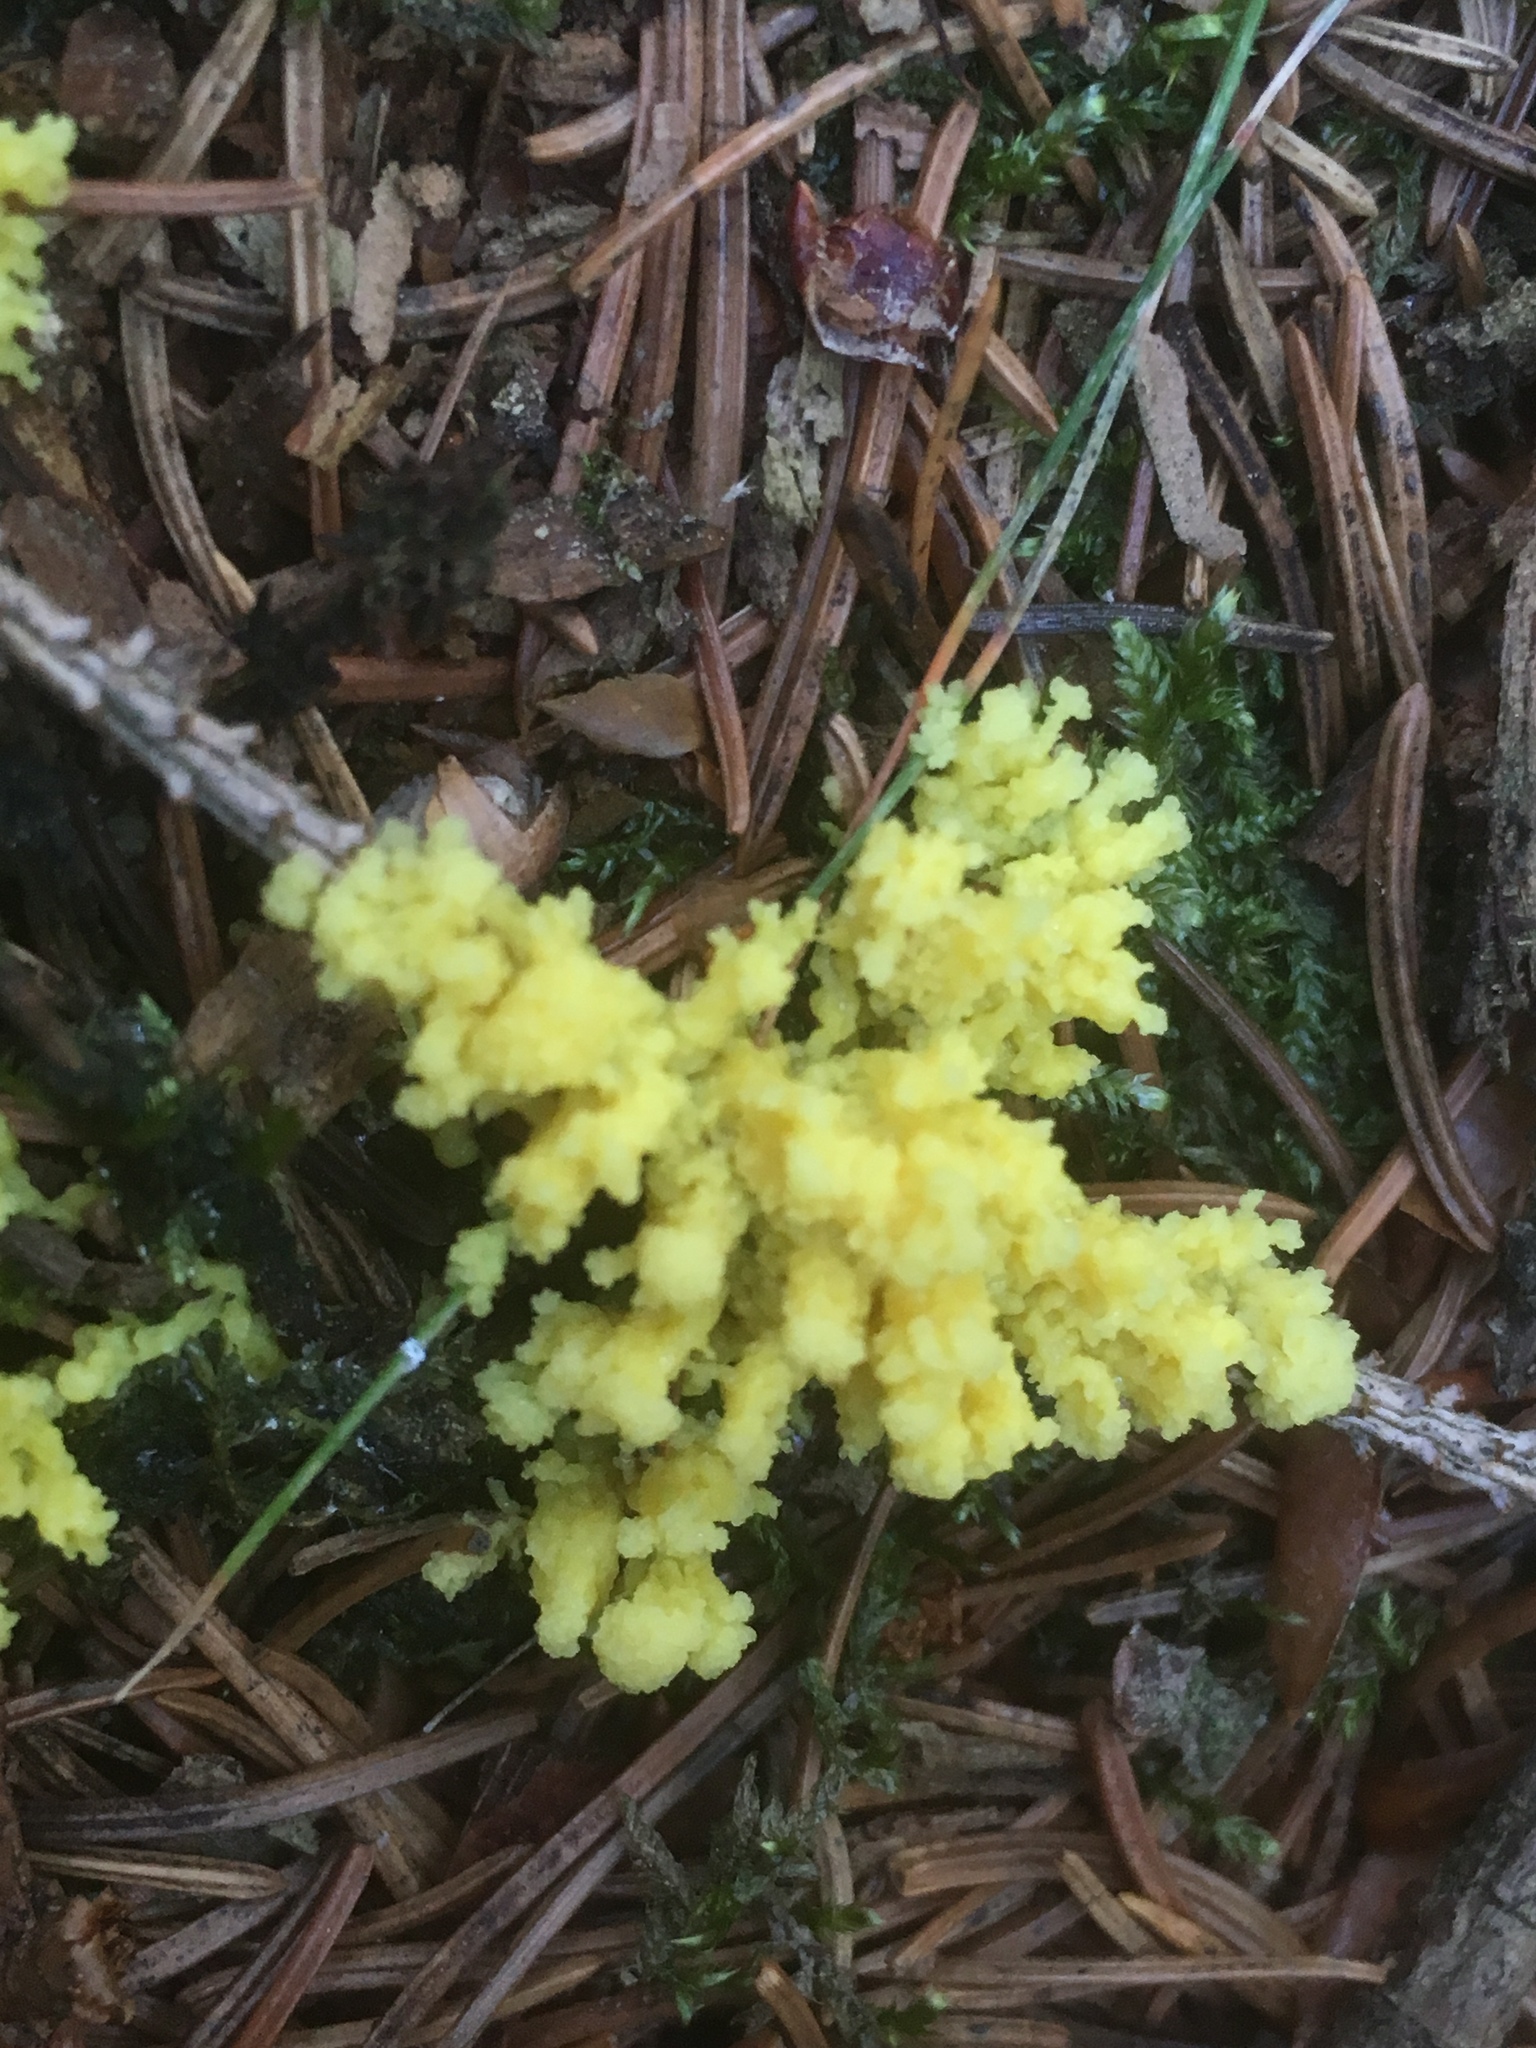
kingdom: Protozoa
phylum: Mycetozoa
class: Myxomycetes
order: Physarales
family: Physaraceae
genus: Fuligo
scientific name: Fuligo septica
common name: Dog vomit slime mold
